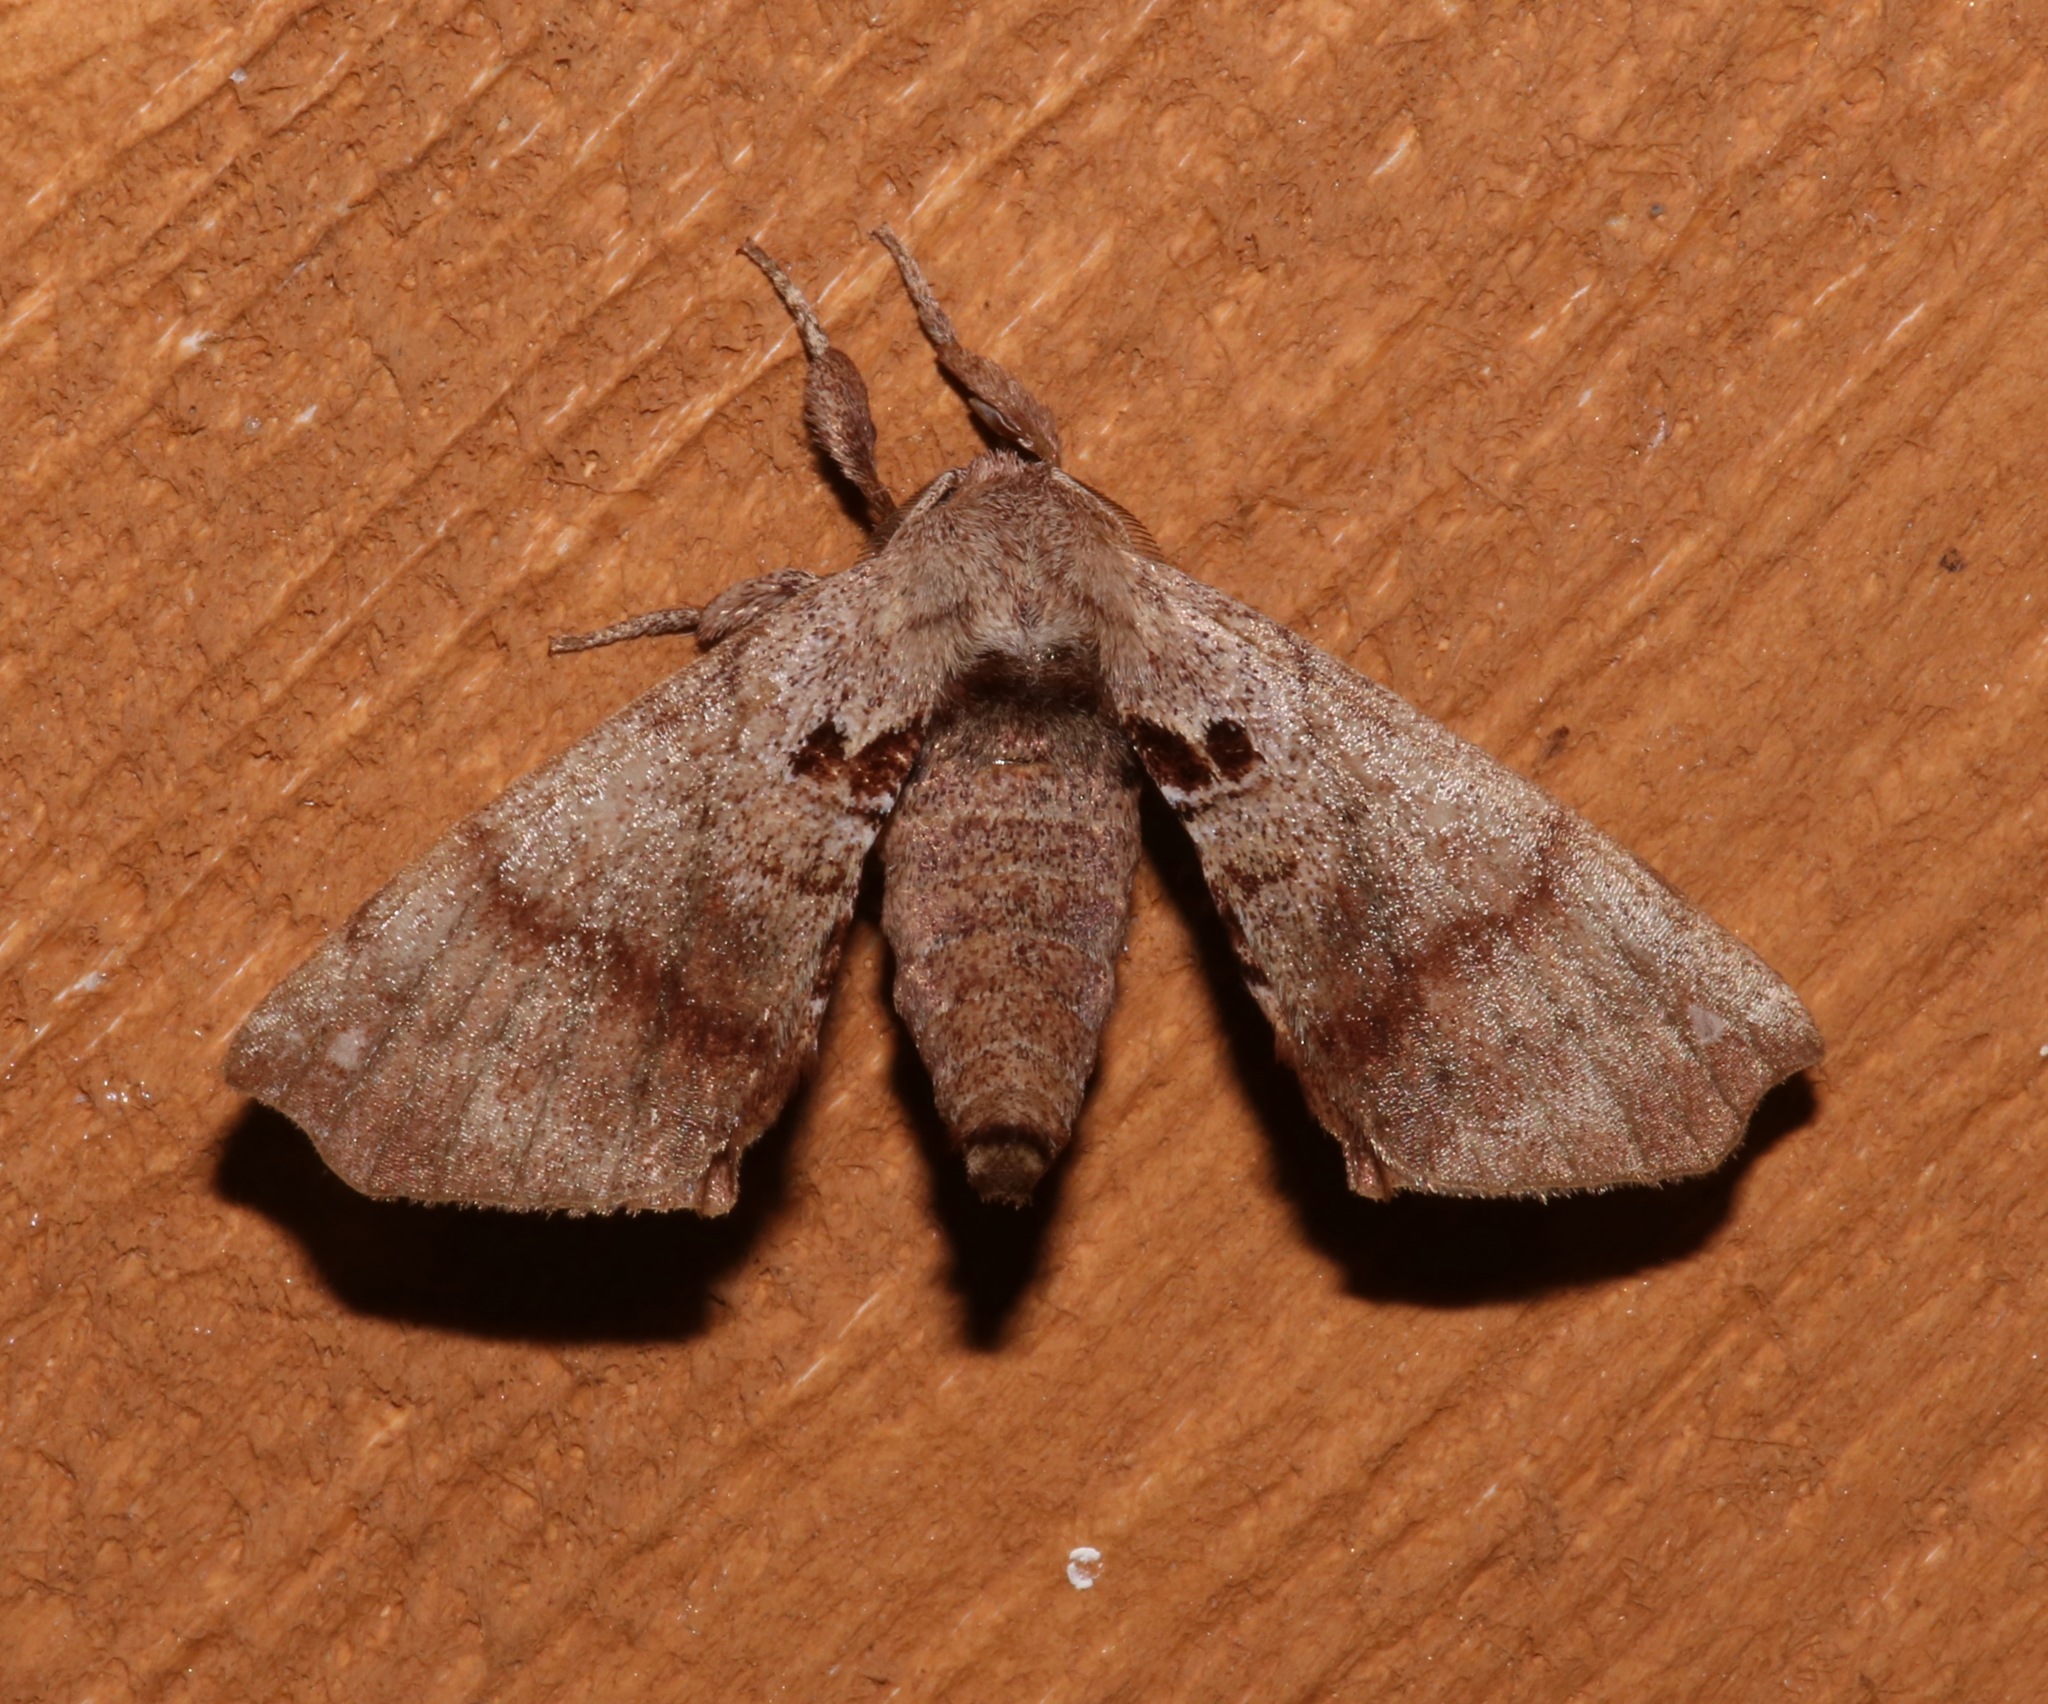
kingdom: Animalia
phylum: Arthropoda
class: Insecta
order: Lepidoptera
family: Apatelodidae
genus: Hygrochroa
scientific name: Hygrochroa Apatelodes torrefacta
